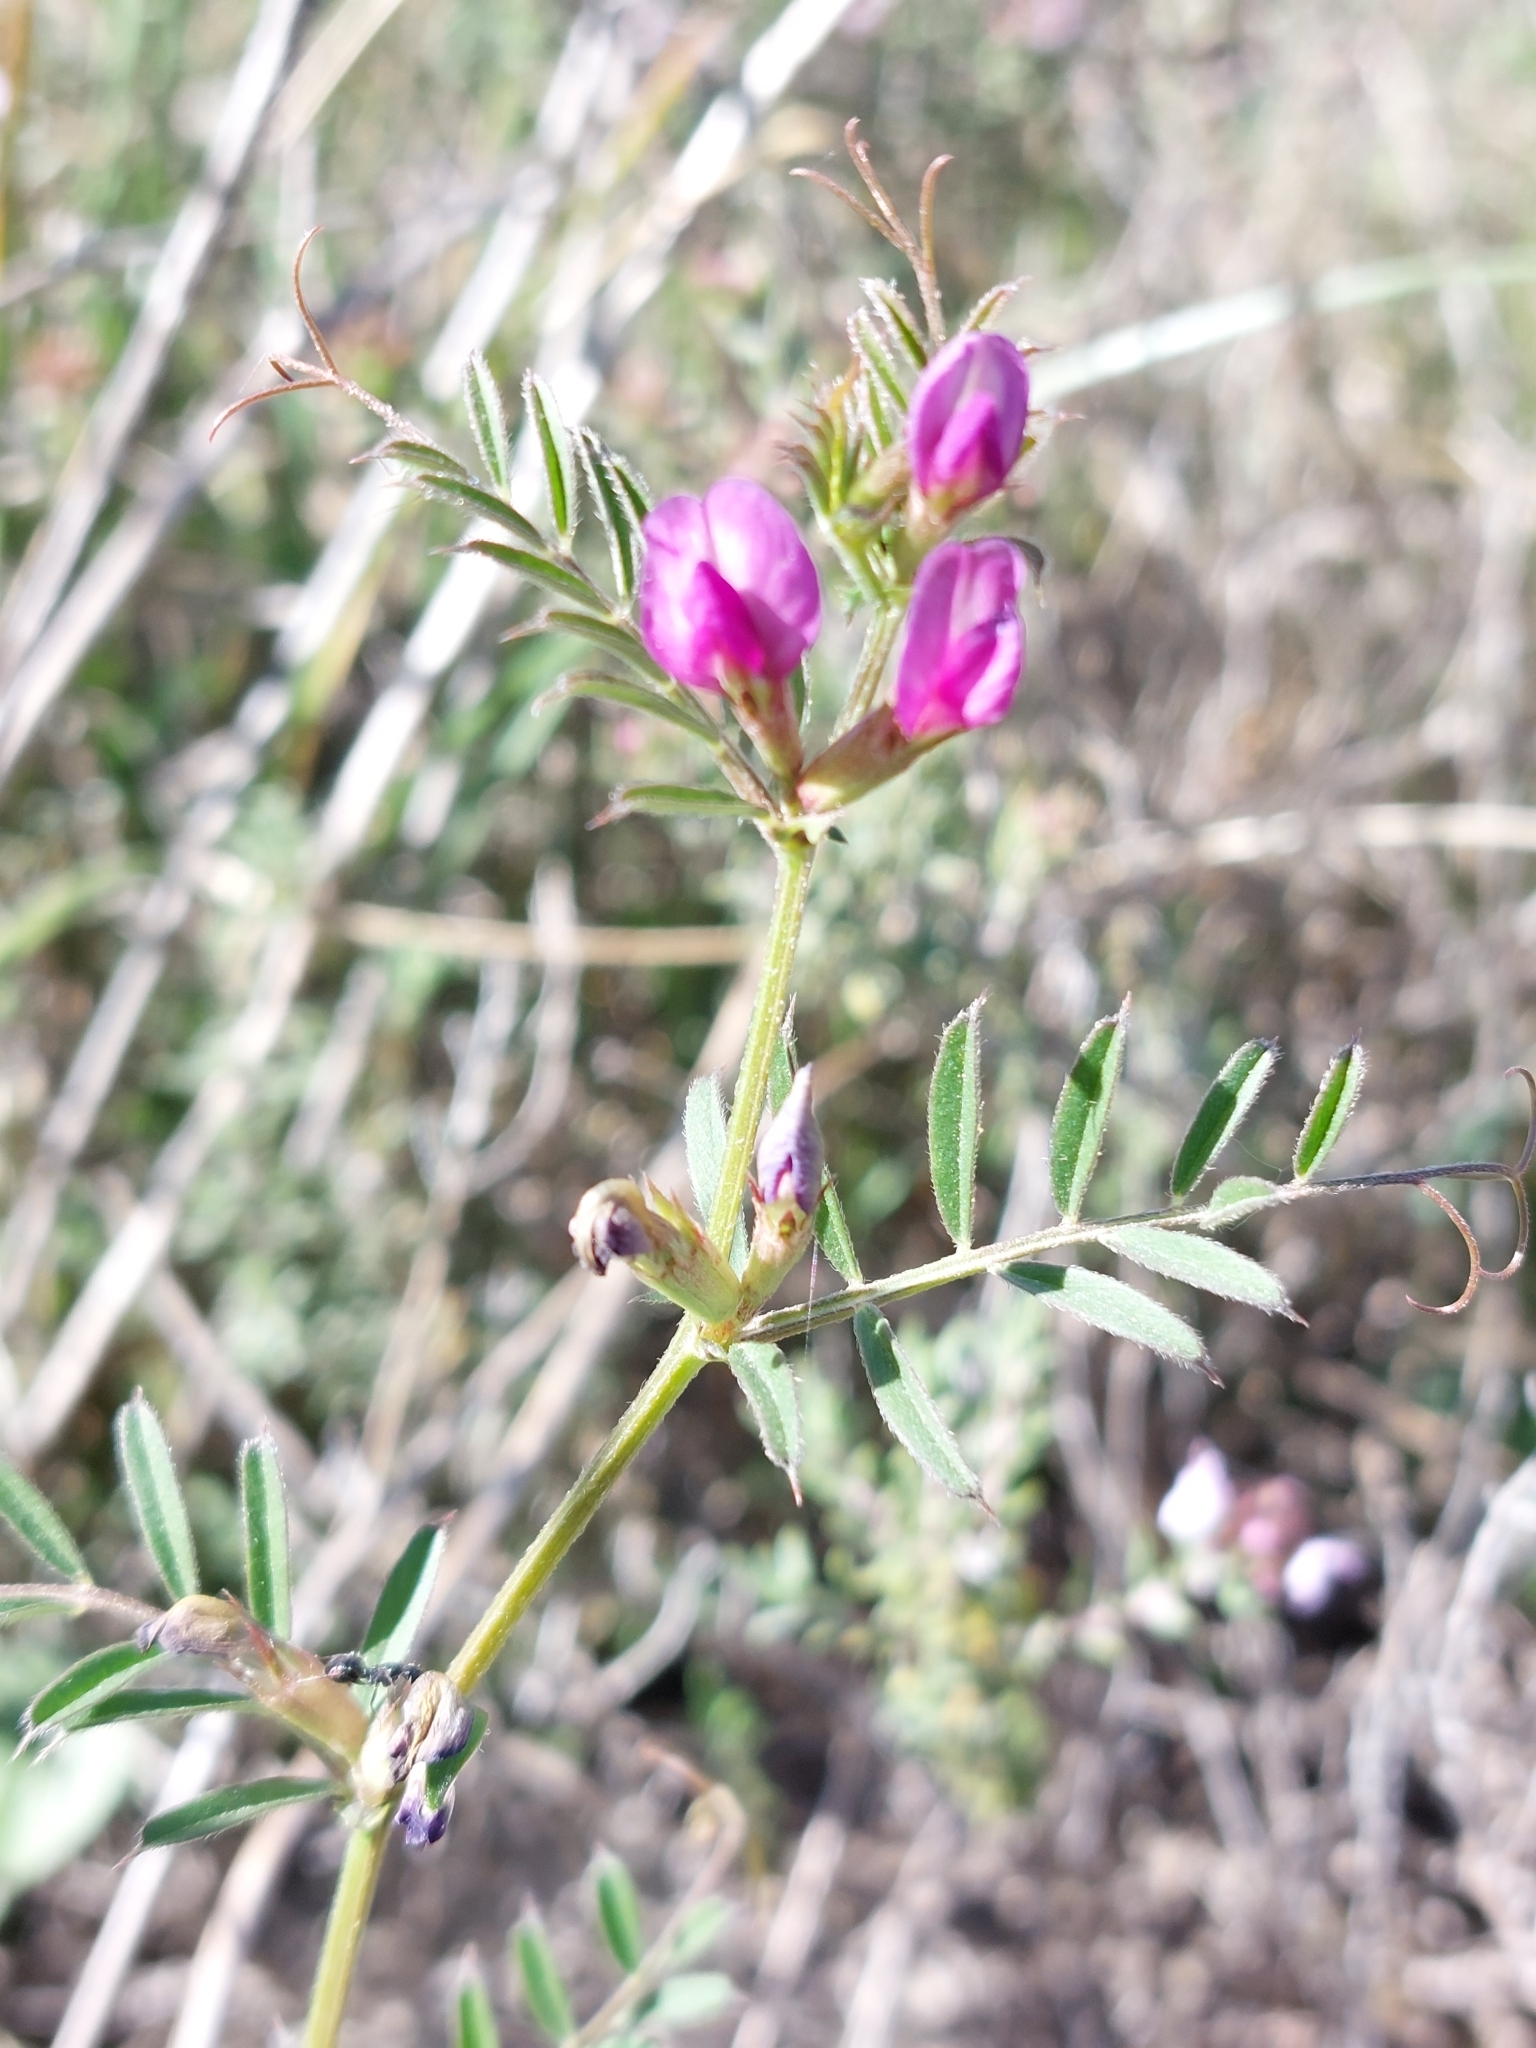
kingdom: Plantae
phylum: Tracheophyta
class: Magnoliopsida
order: Fabales
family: Fabaceae
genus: Vicia
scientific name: Vicia sativa
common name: Garden vetch
